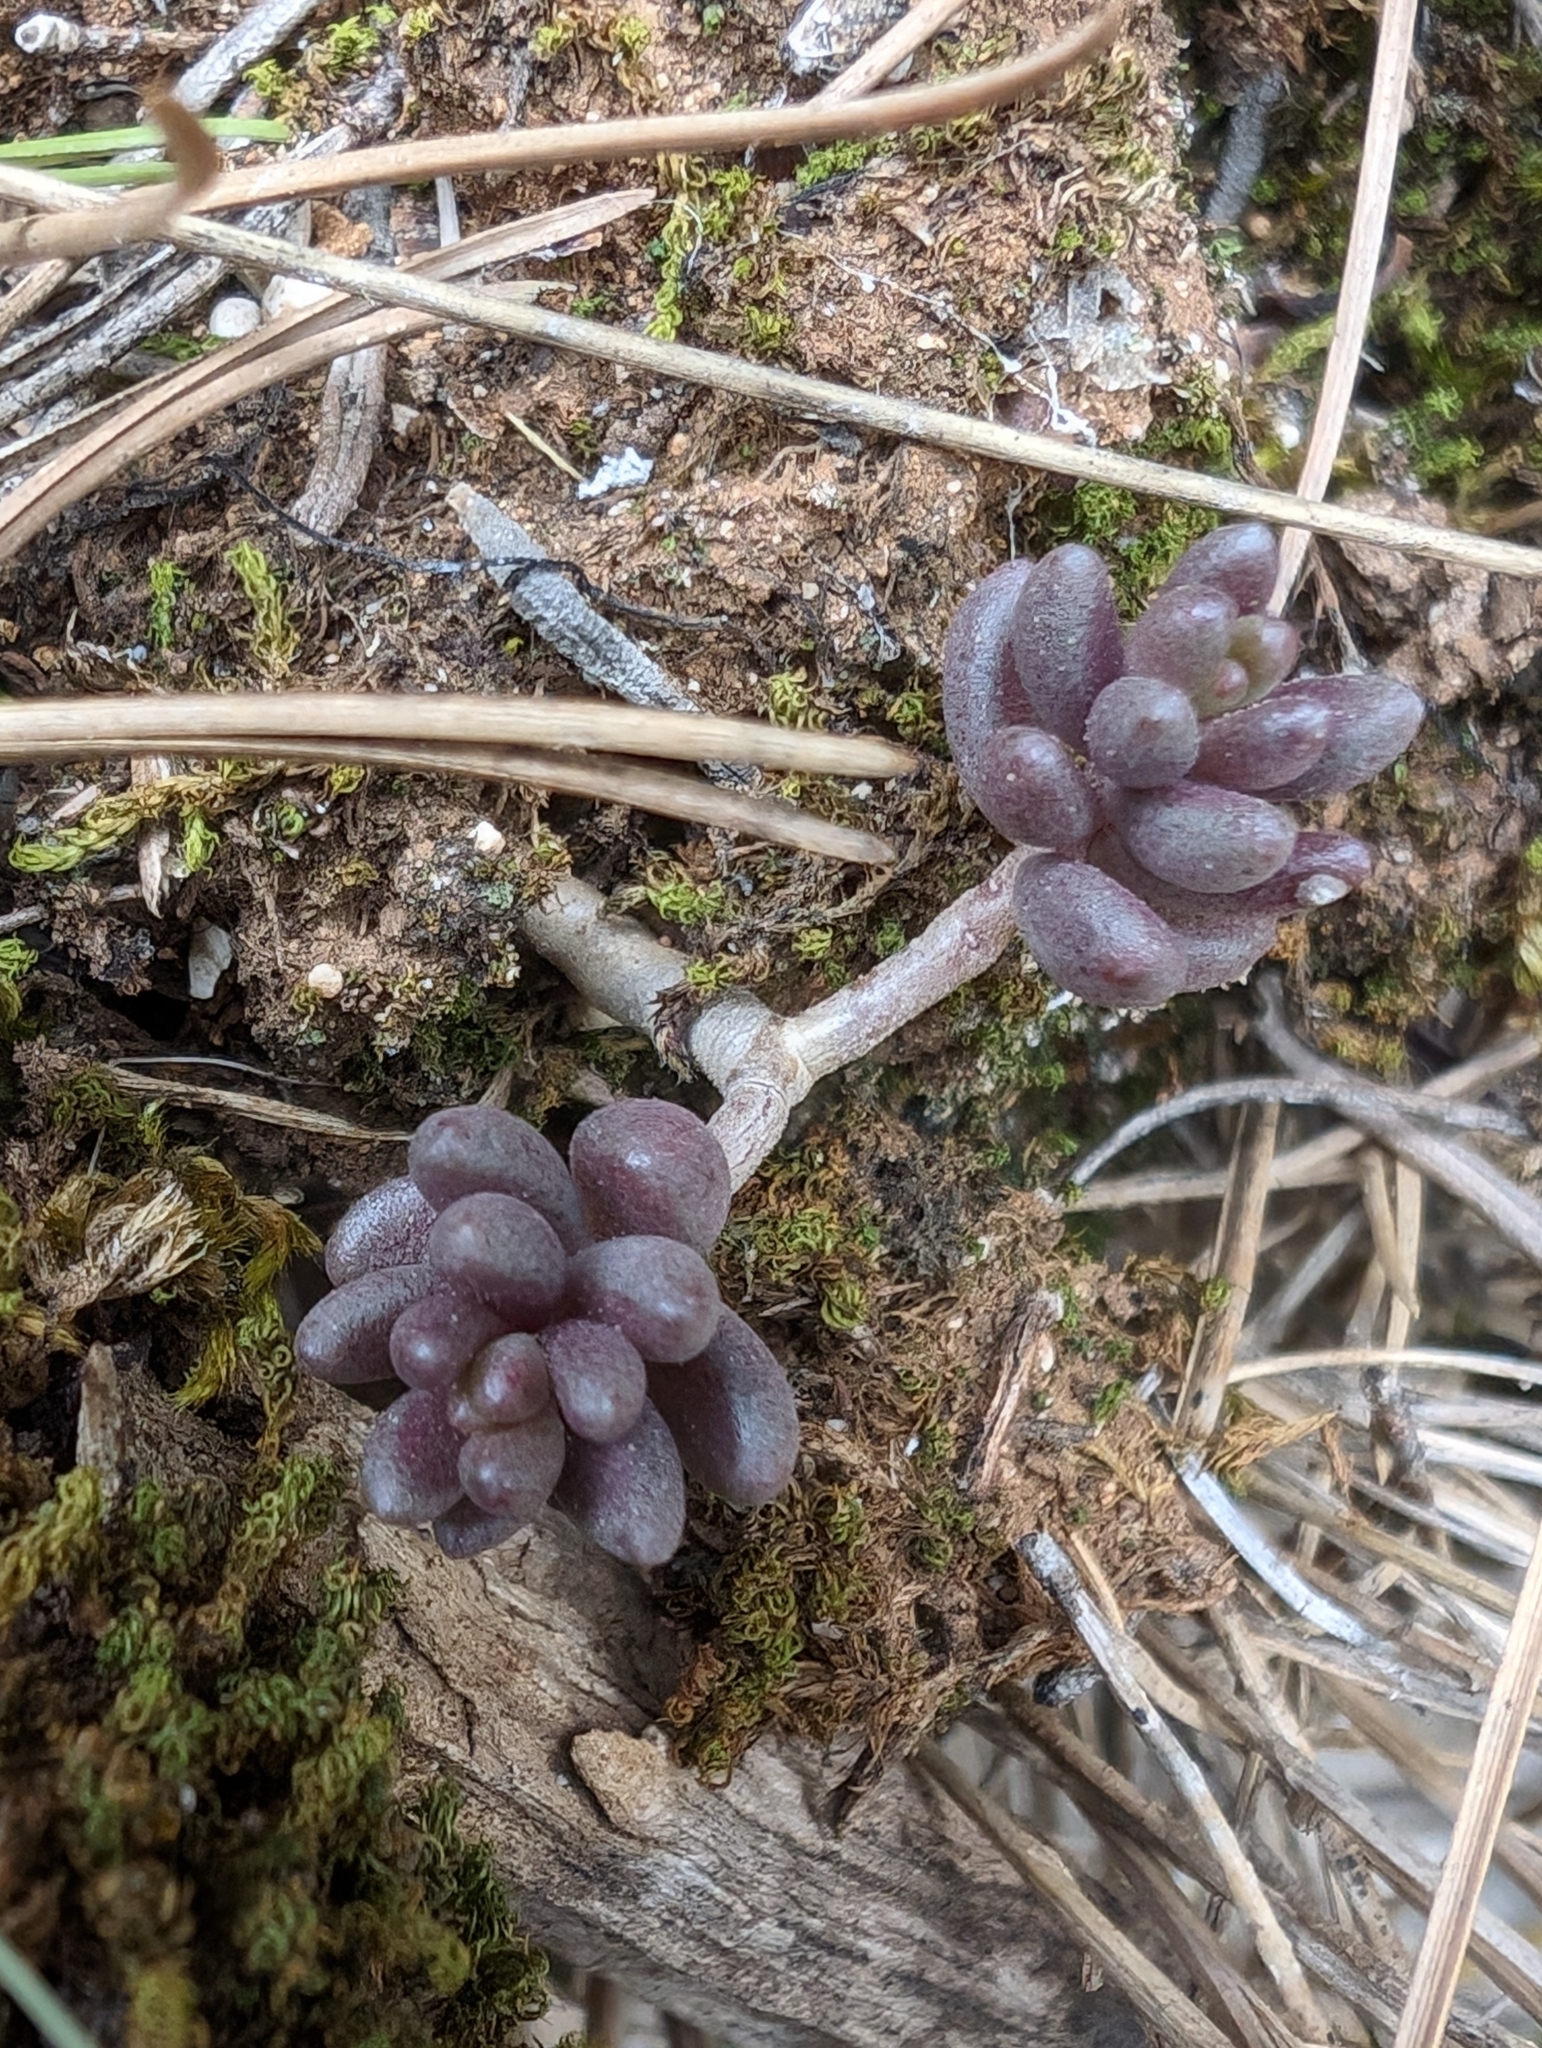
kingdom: Plantae
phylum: Tracheophyta
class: Magnoliopsida
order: Saxifragales
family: Crassulaceae
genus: Sedum
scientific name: Sedum album
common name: White stonecrop
